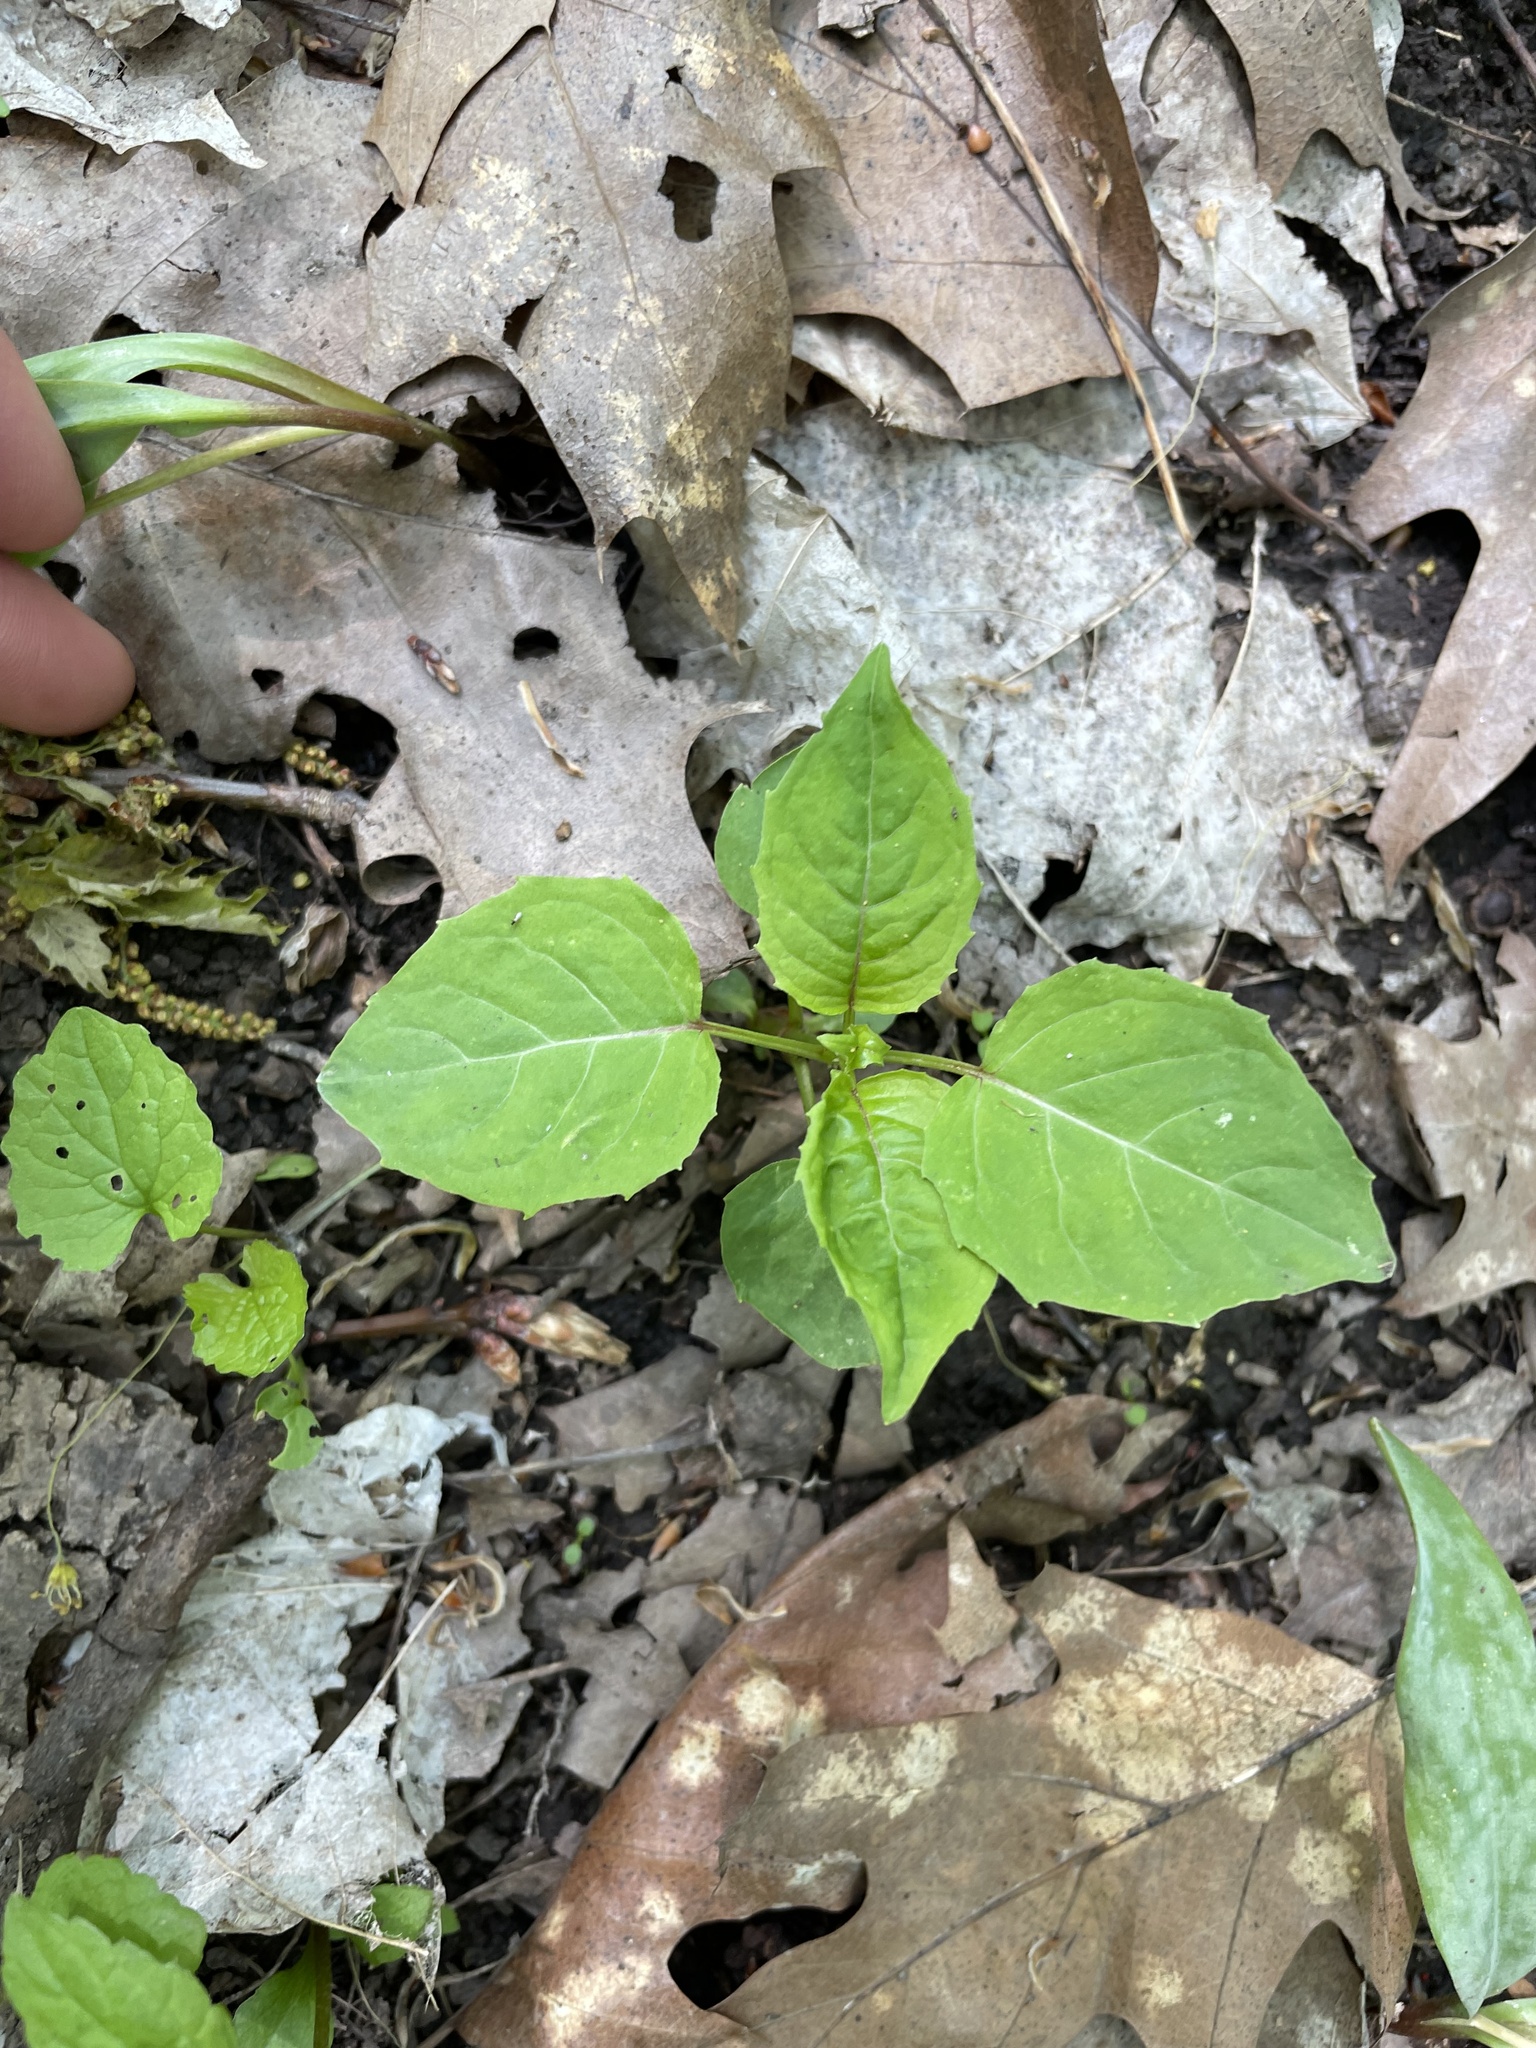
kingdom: Plantae
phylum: Tracheophyta
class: Magnoliopsida
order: Myrtales
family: Onagraceae
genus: Circaea
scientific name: Circaea canadensis
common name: Broad-leaved enchanter's nightshade
